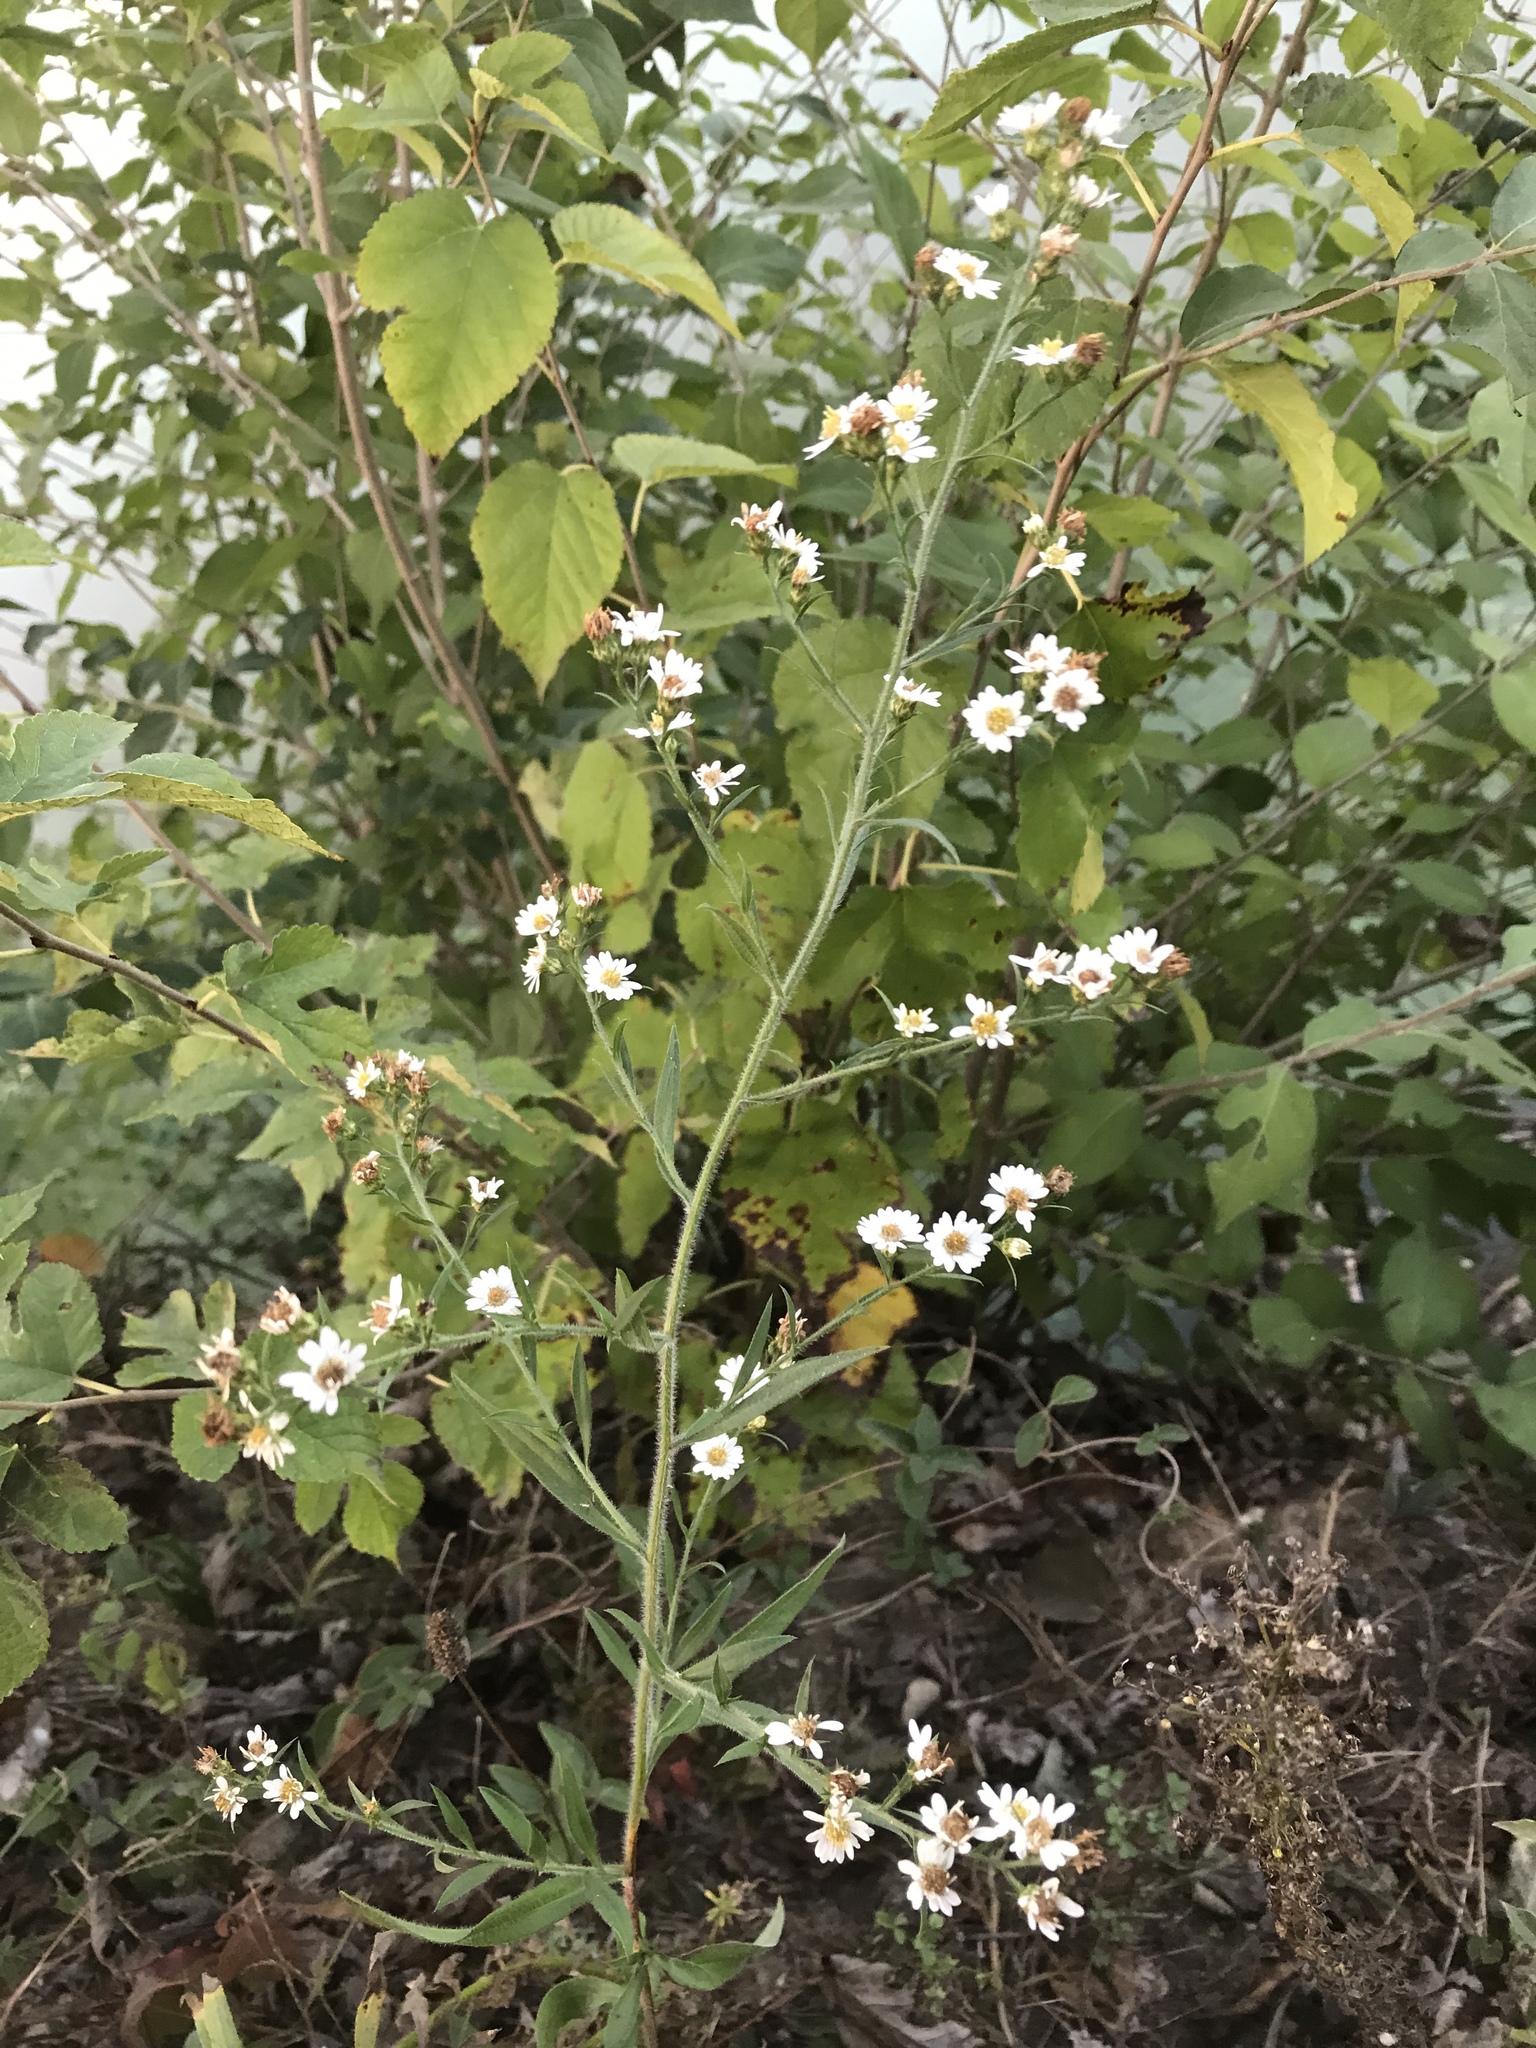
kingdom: Plantae
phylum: Tracheophyta
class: Magnoliopsida
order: Asterales
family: Asteraceae
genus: Symphyotrichum
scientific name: Symphyotrichum pilosum
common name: Awl aster
